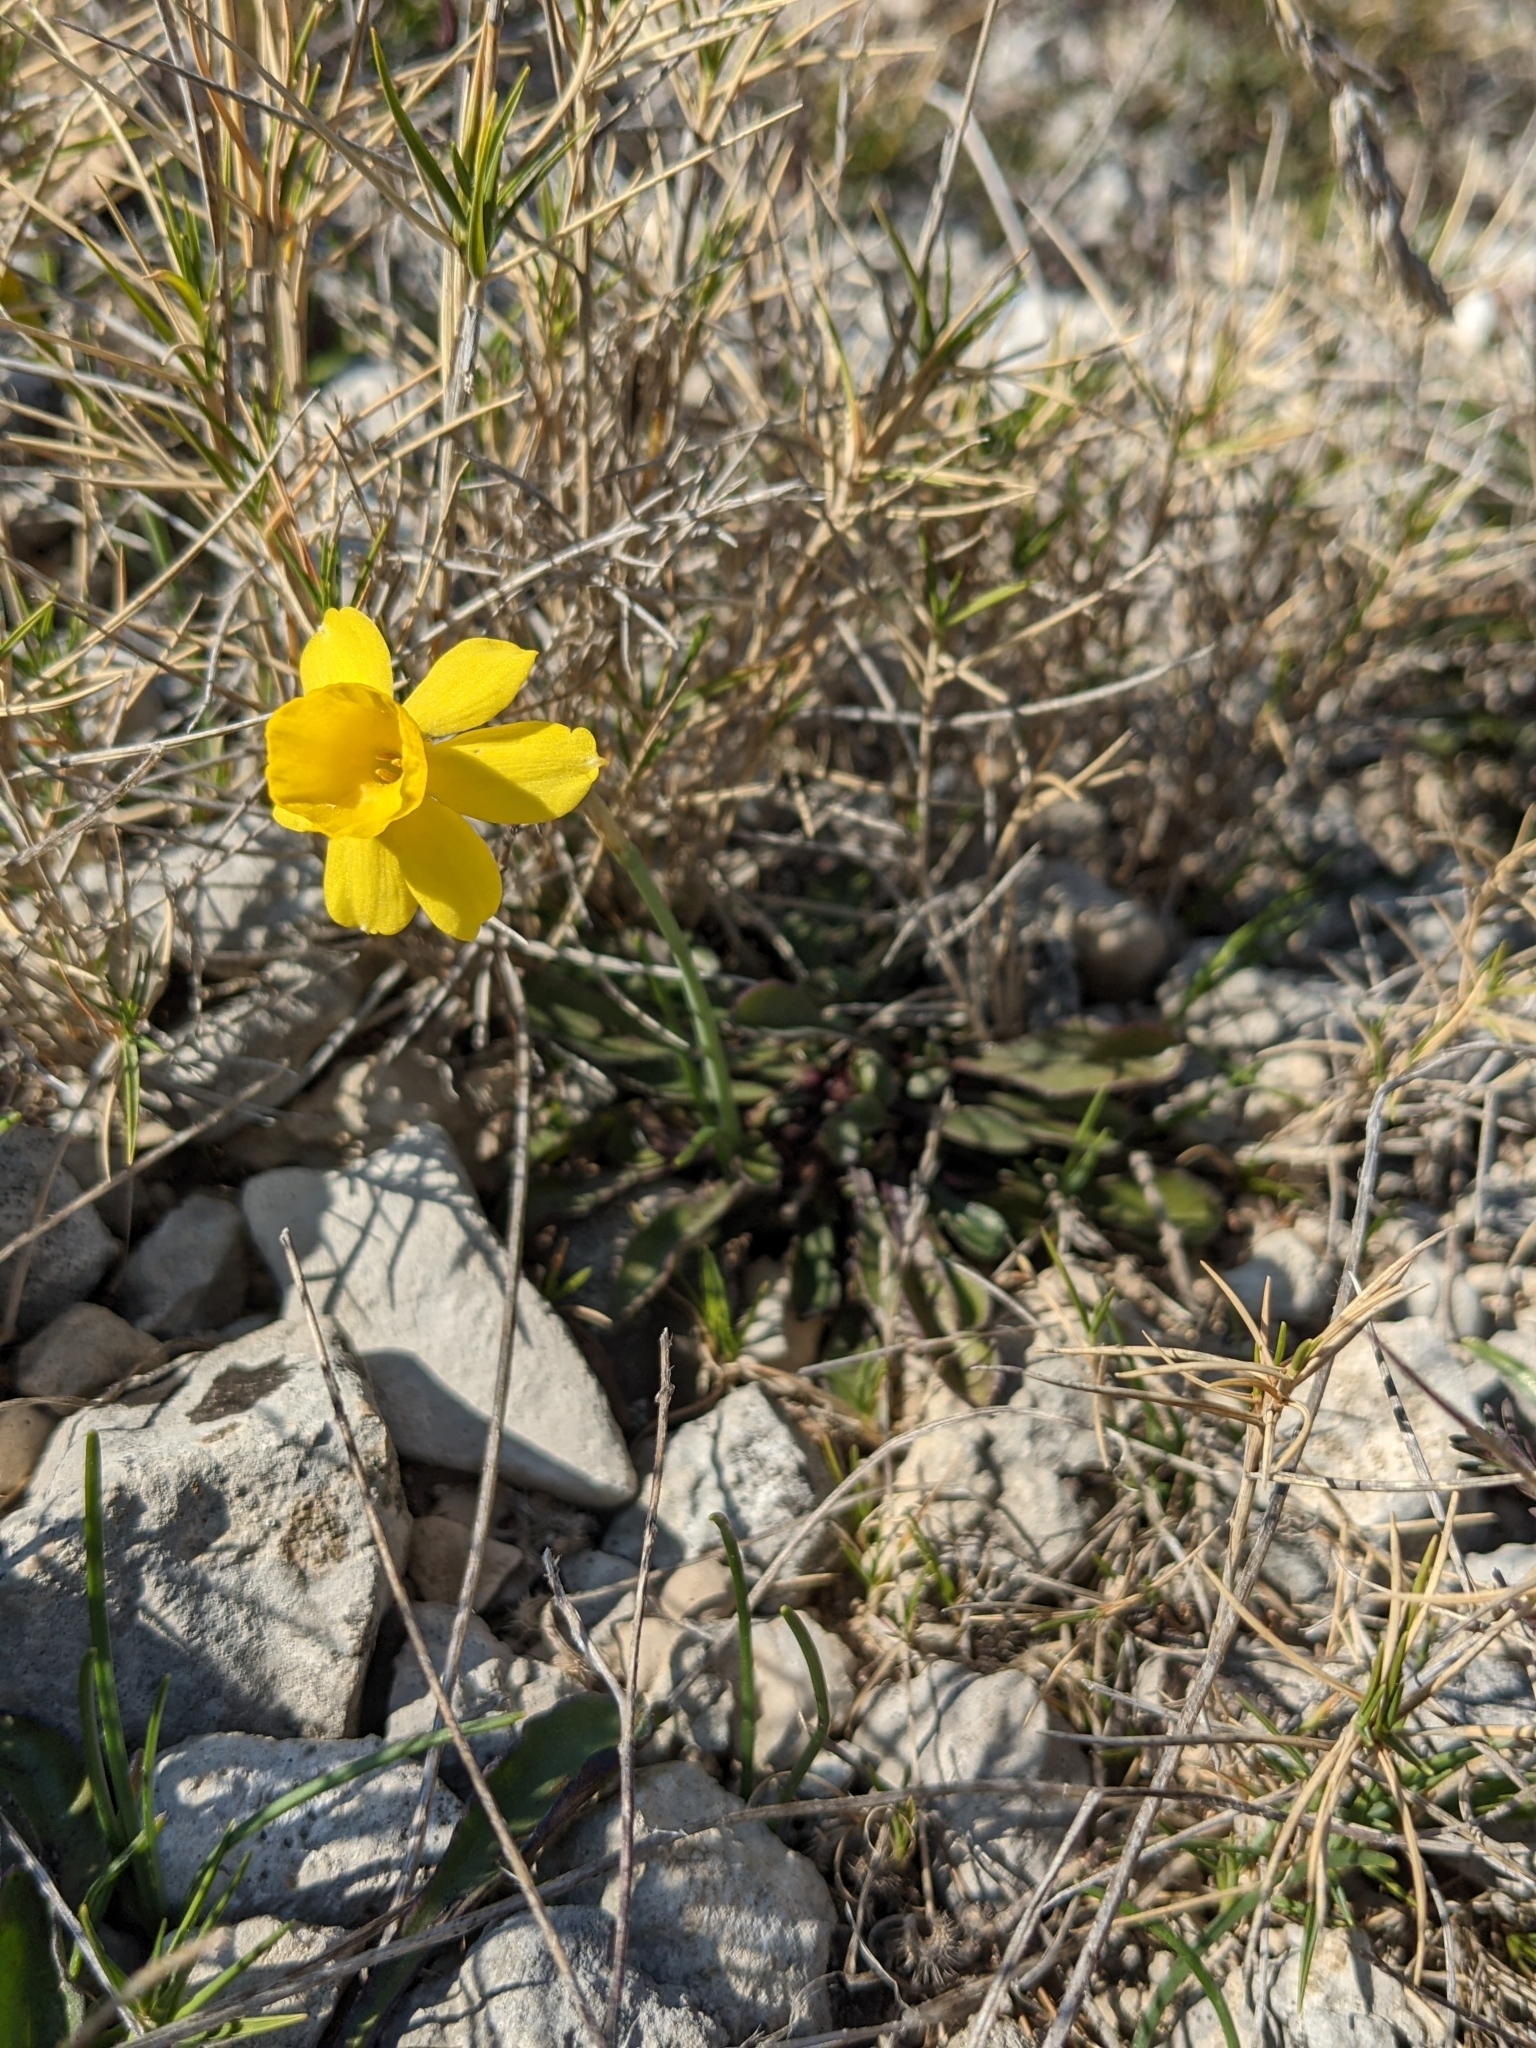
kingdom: Plantae
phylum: Tracheophyta
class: Liliopsida
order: Asparagales
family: Amaryllidaceae
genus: Narcissus
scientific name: Narcissus assoanus
